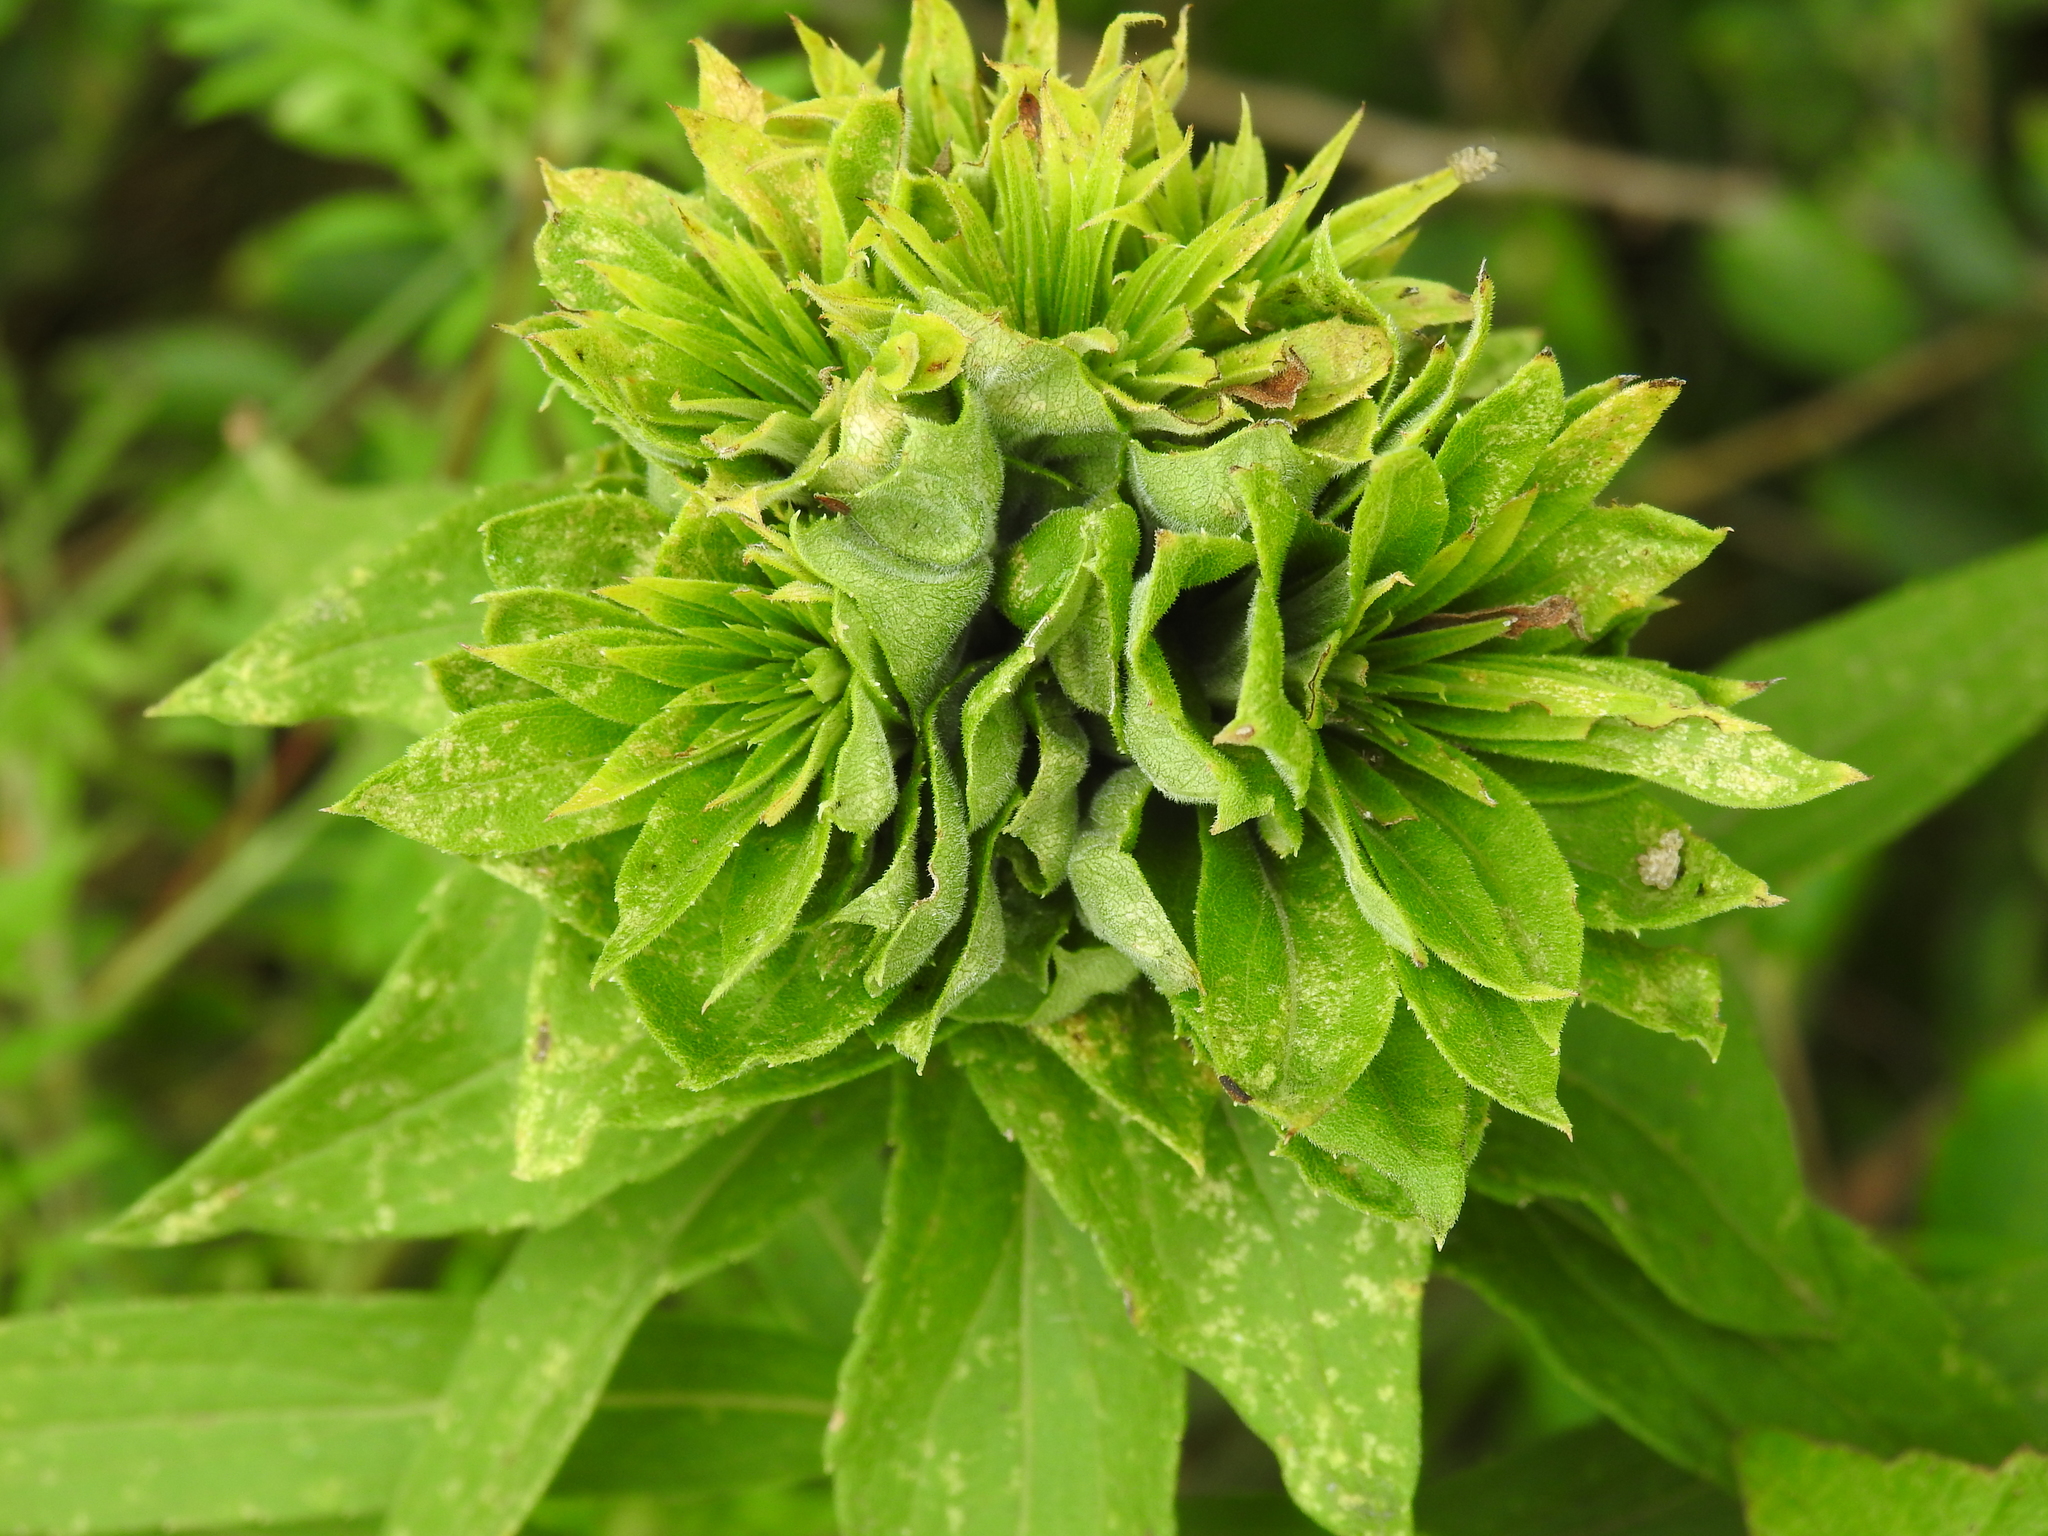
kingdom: Animalia
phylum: Arthropoda
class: Insecta
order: Diptera
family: Cecidomyiidae
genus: Rhopalomyia
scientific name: Rhopalomyia solidaginis
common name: Goldenrod bunch gall midge
